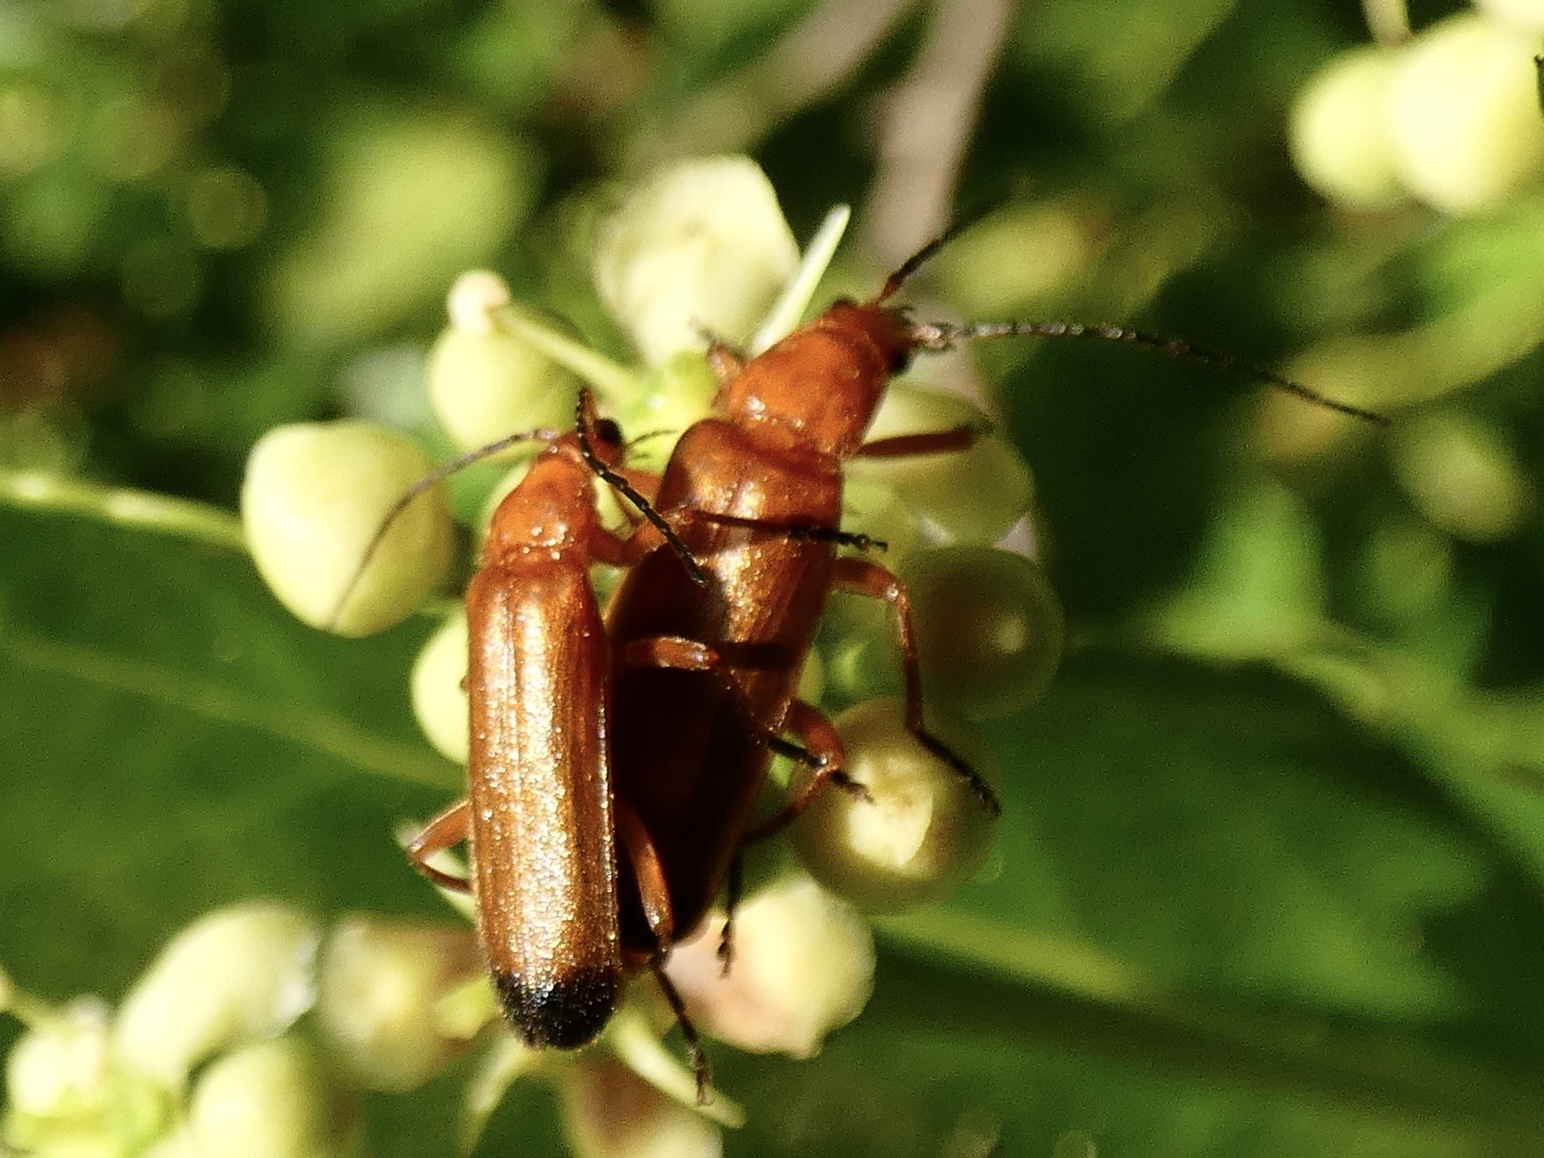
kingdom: Animalia
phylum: Arthropoda
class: Insecta
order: Coleoptera
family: Cantharidae
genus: Rhagonycha
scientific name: Rhagonycha fulva
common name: Common red soldier beetle
